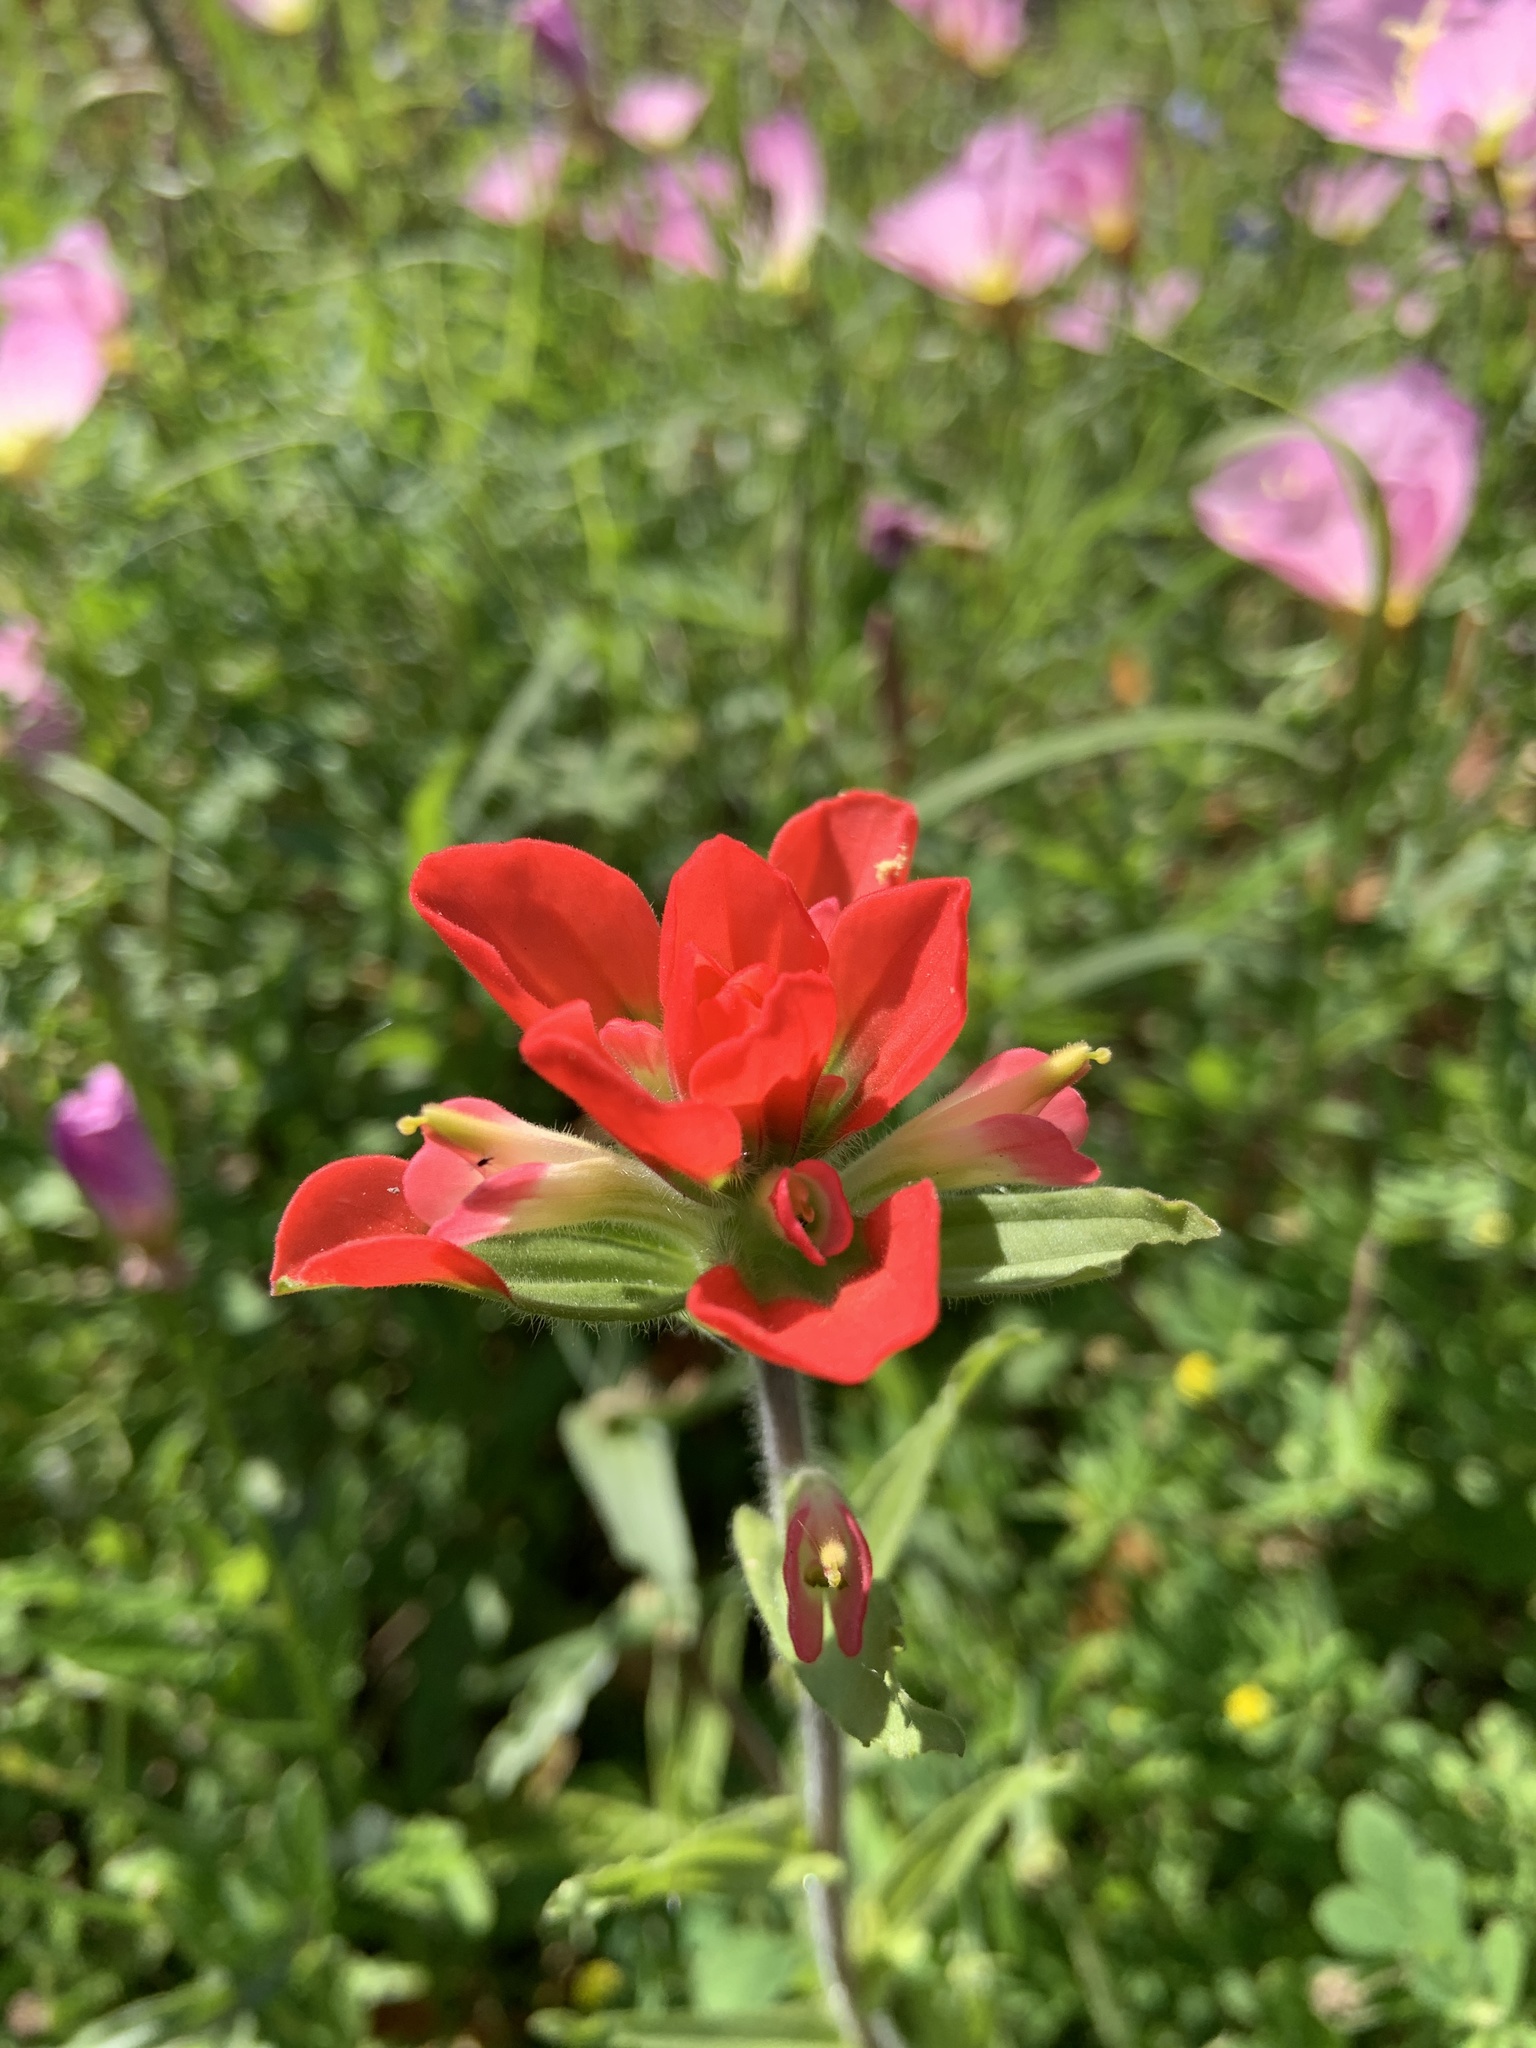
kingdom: Plantae
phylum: Tracheophyta
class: Magnoliopsida
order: Lamiales
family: Orobanchaceae
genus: Castilleja
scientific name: Castilleja indivisa
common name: Texas paintbrush
